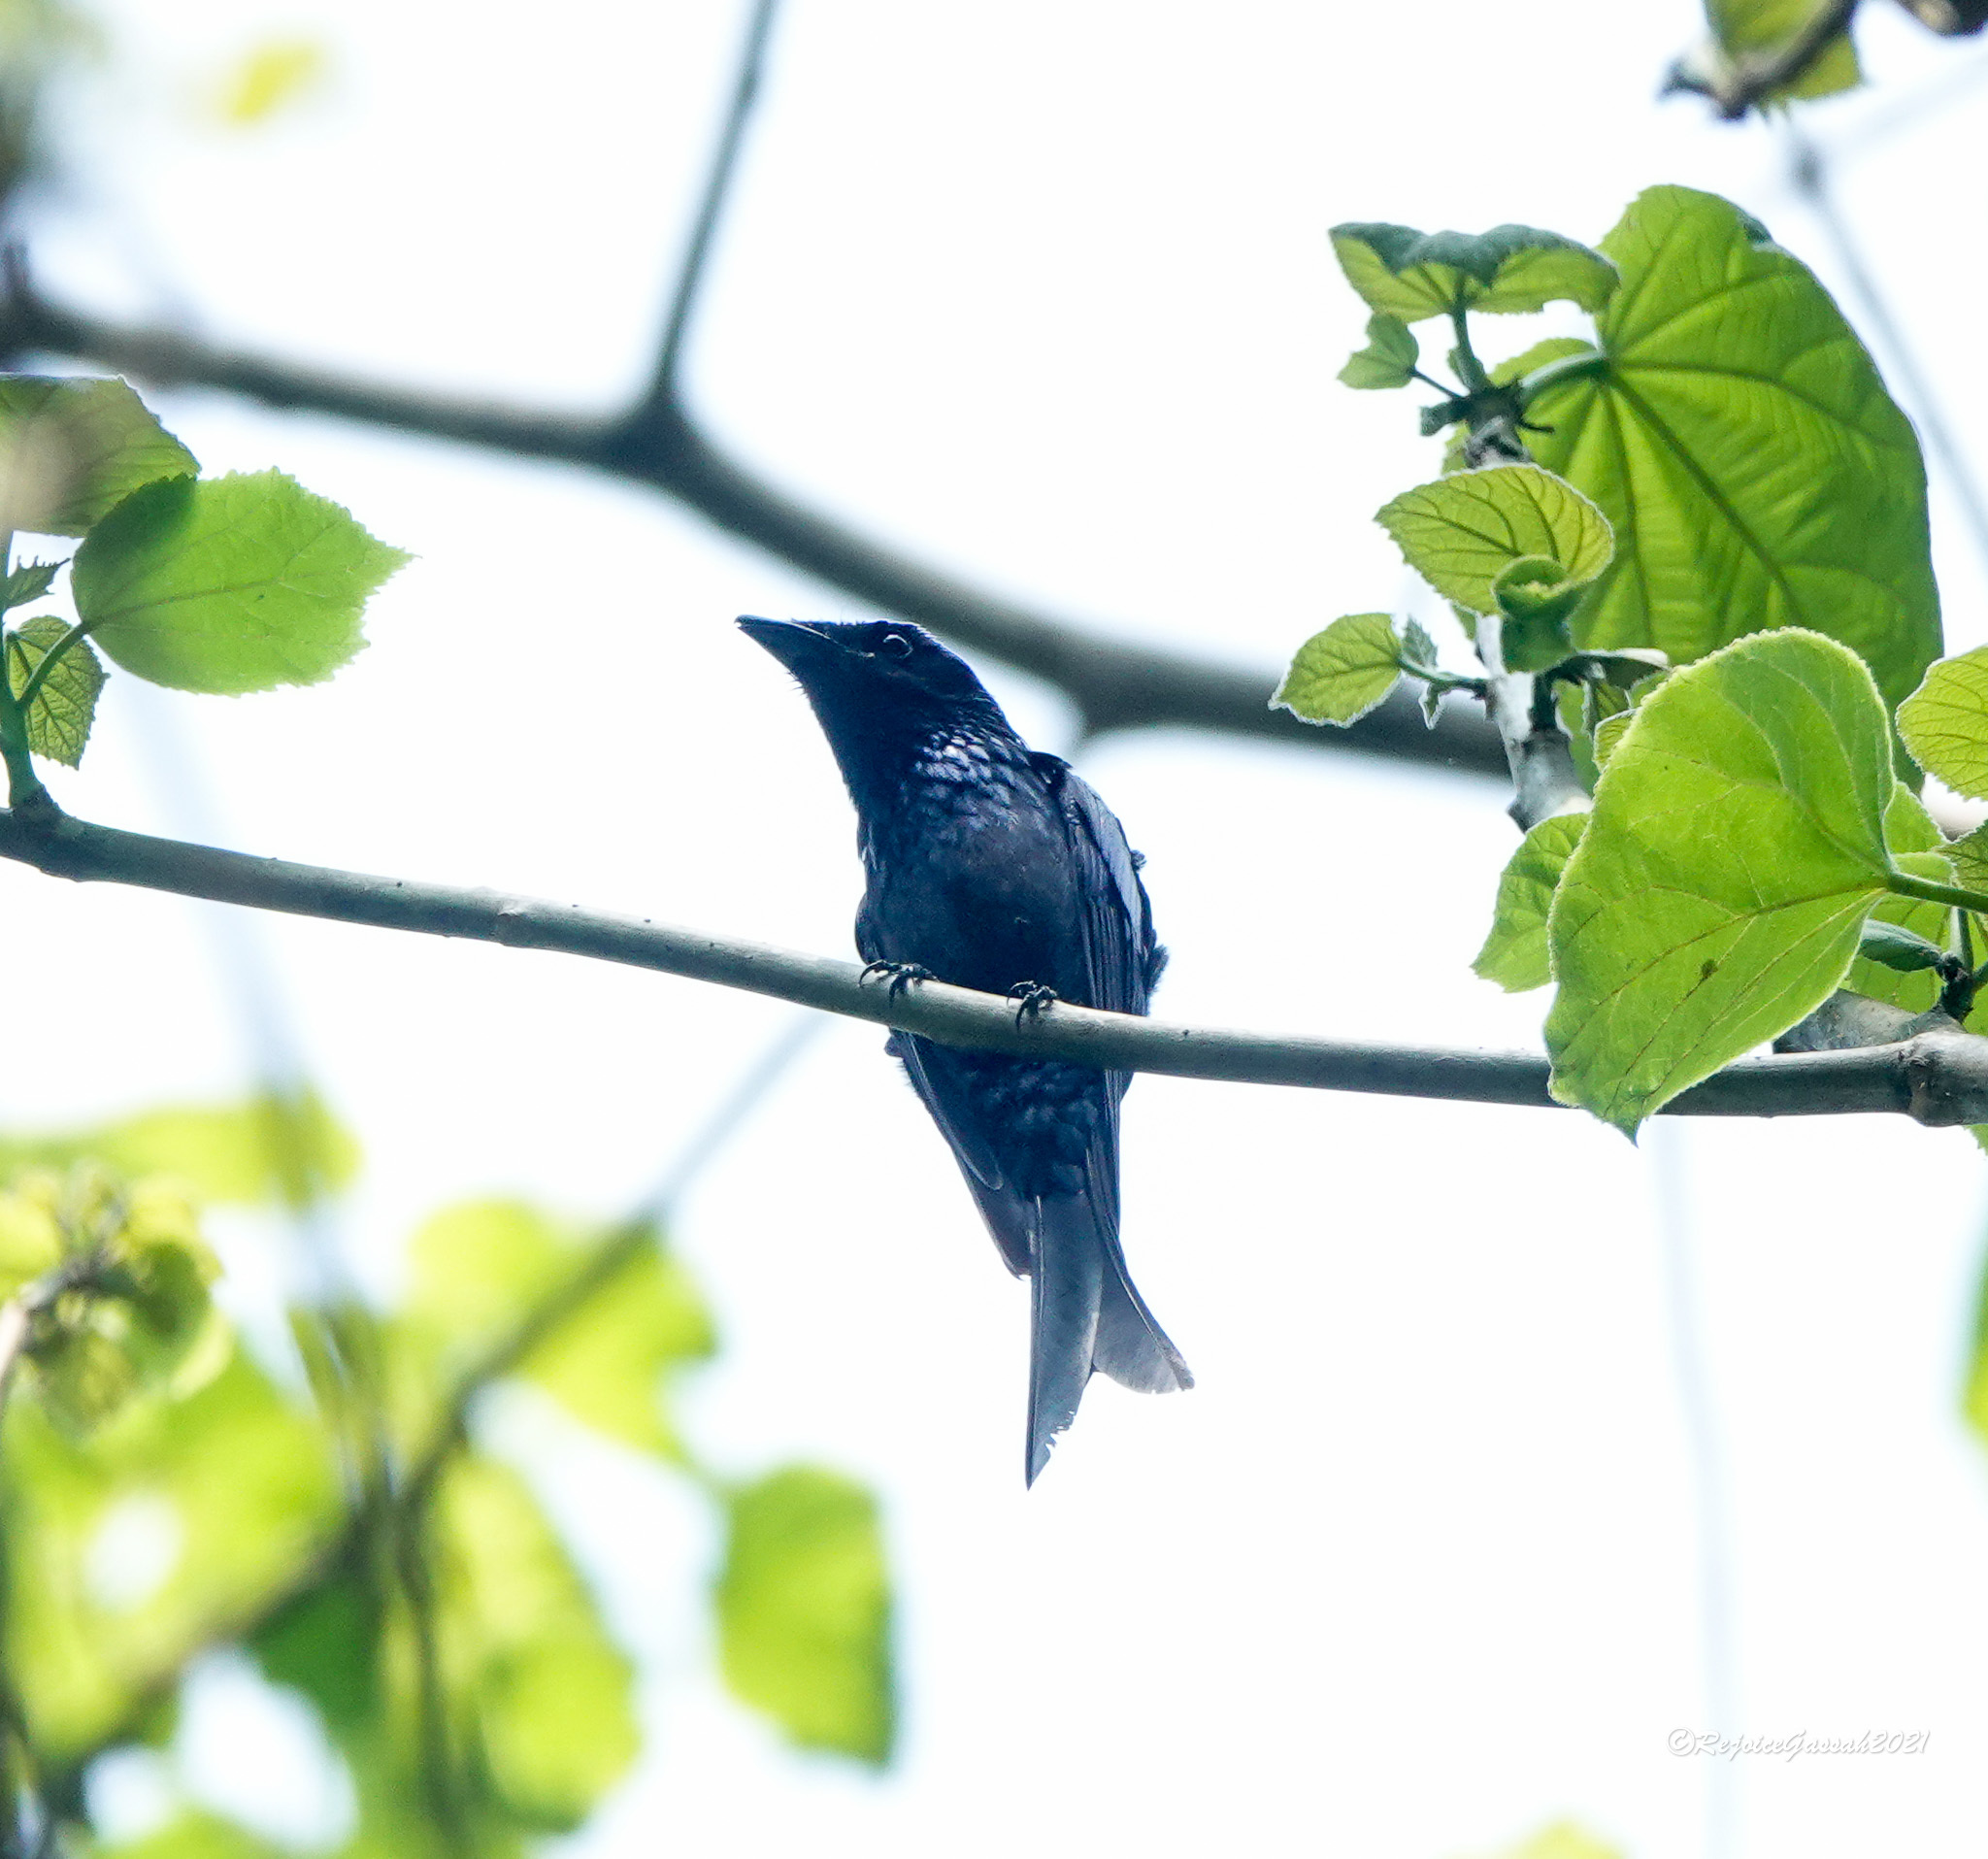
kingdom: Animalia
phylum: Chordata
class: Aves
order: Passeriformes
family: Dicruridae
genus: Dicrurus
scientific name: Dicrurus aeneus
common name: Bronzed drongo
